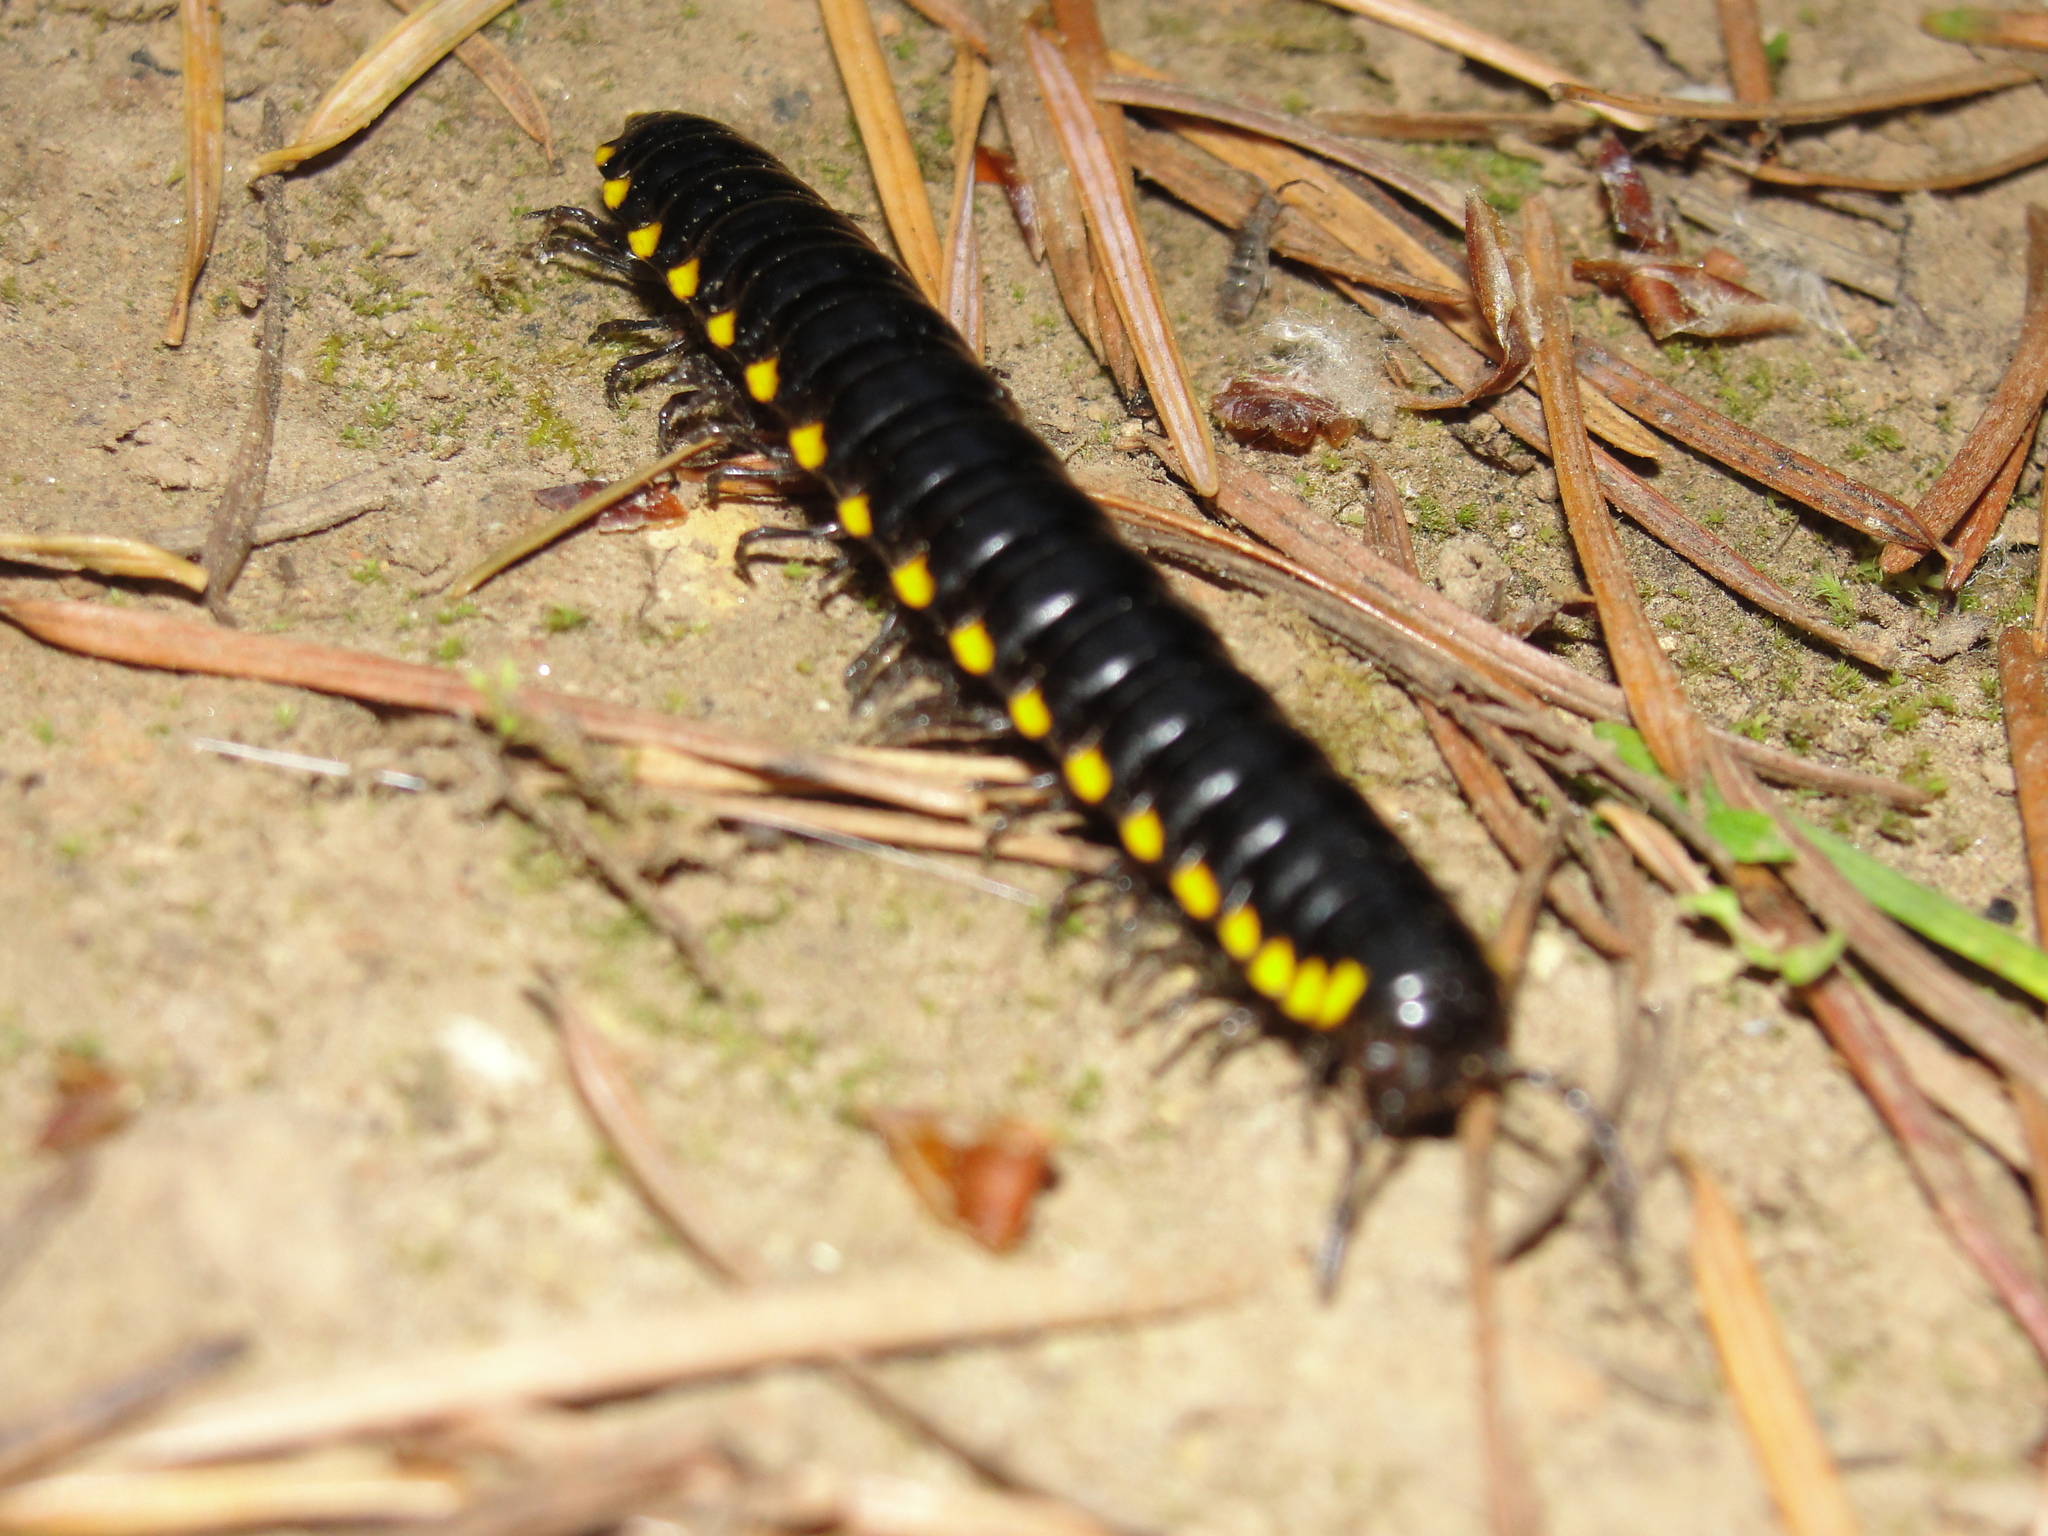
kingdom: Animalia
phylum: Arthropoda
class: Diplopoda
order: Polydesmida
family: Xystodesmidae
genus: Harpaphe
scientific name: Harpaphe haydeniana
